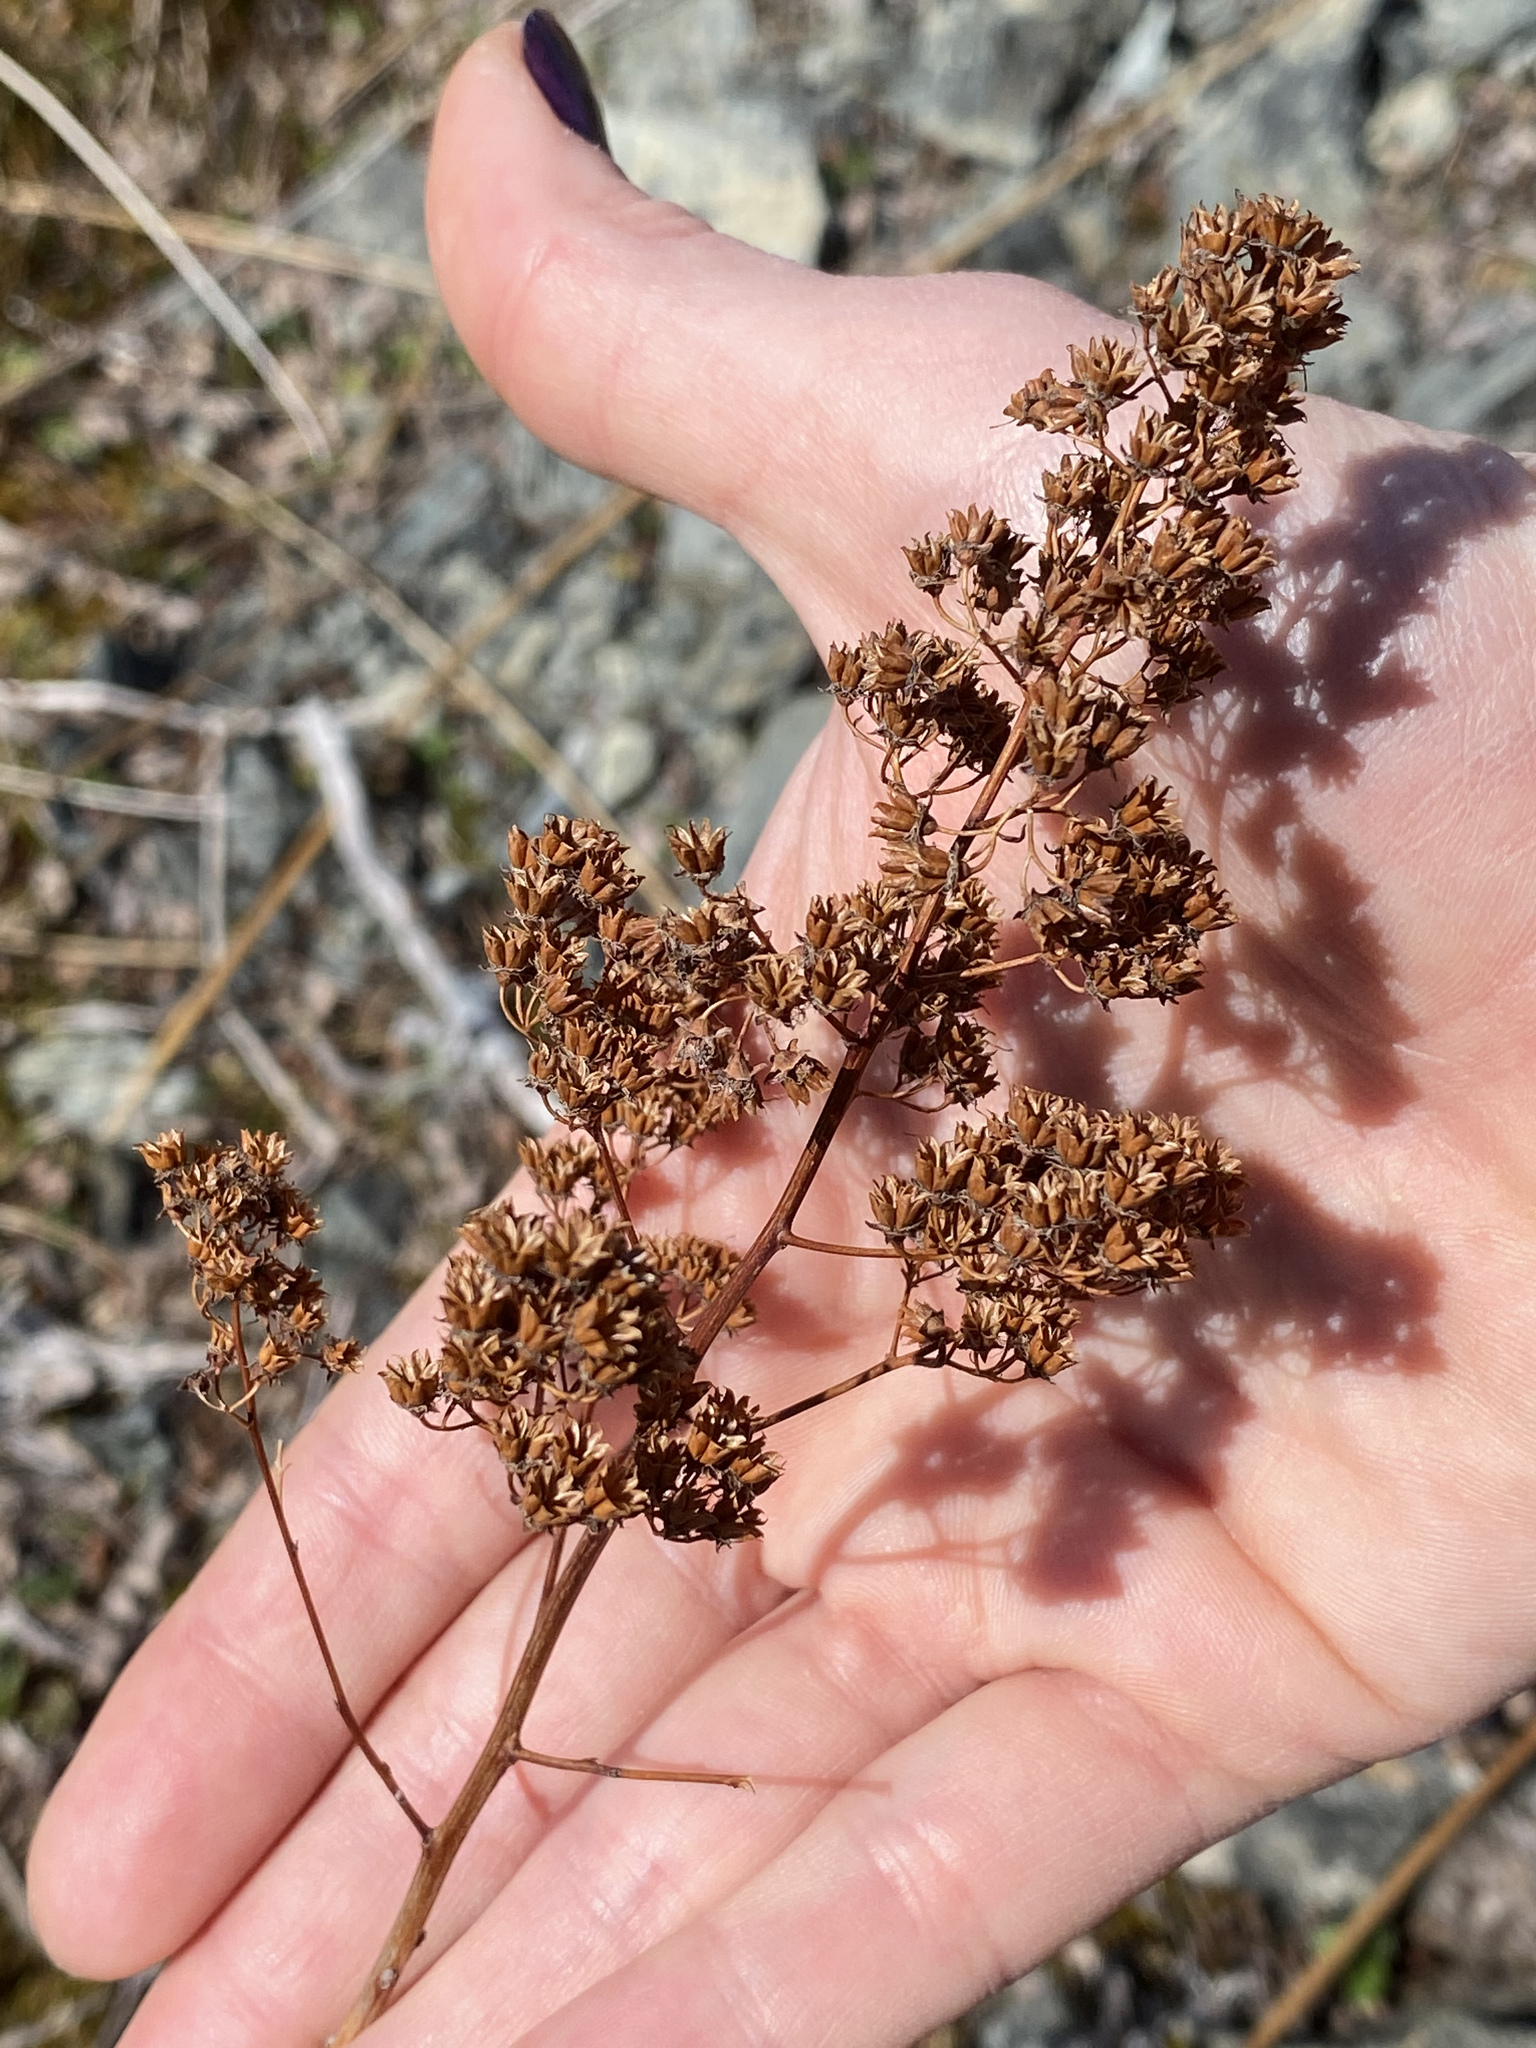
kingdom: Plantae
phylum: Tracheophyta
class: Magnoliopsida
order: Rosales
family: Rosaceae
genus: Spiraea
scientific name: Spiraea alba
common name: Pale bridewort
